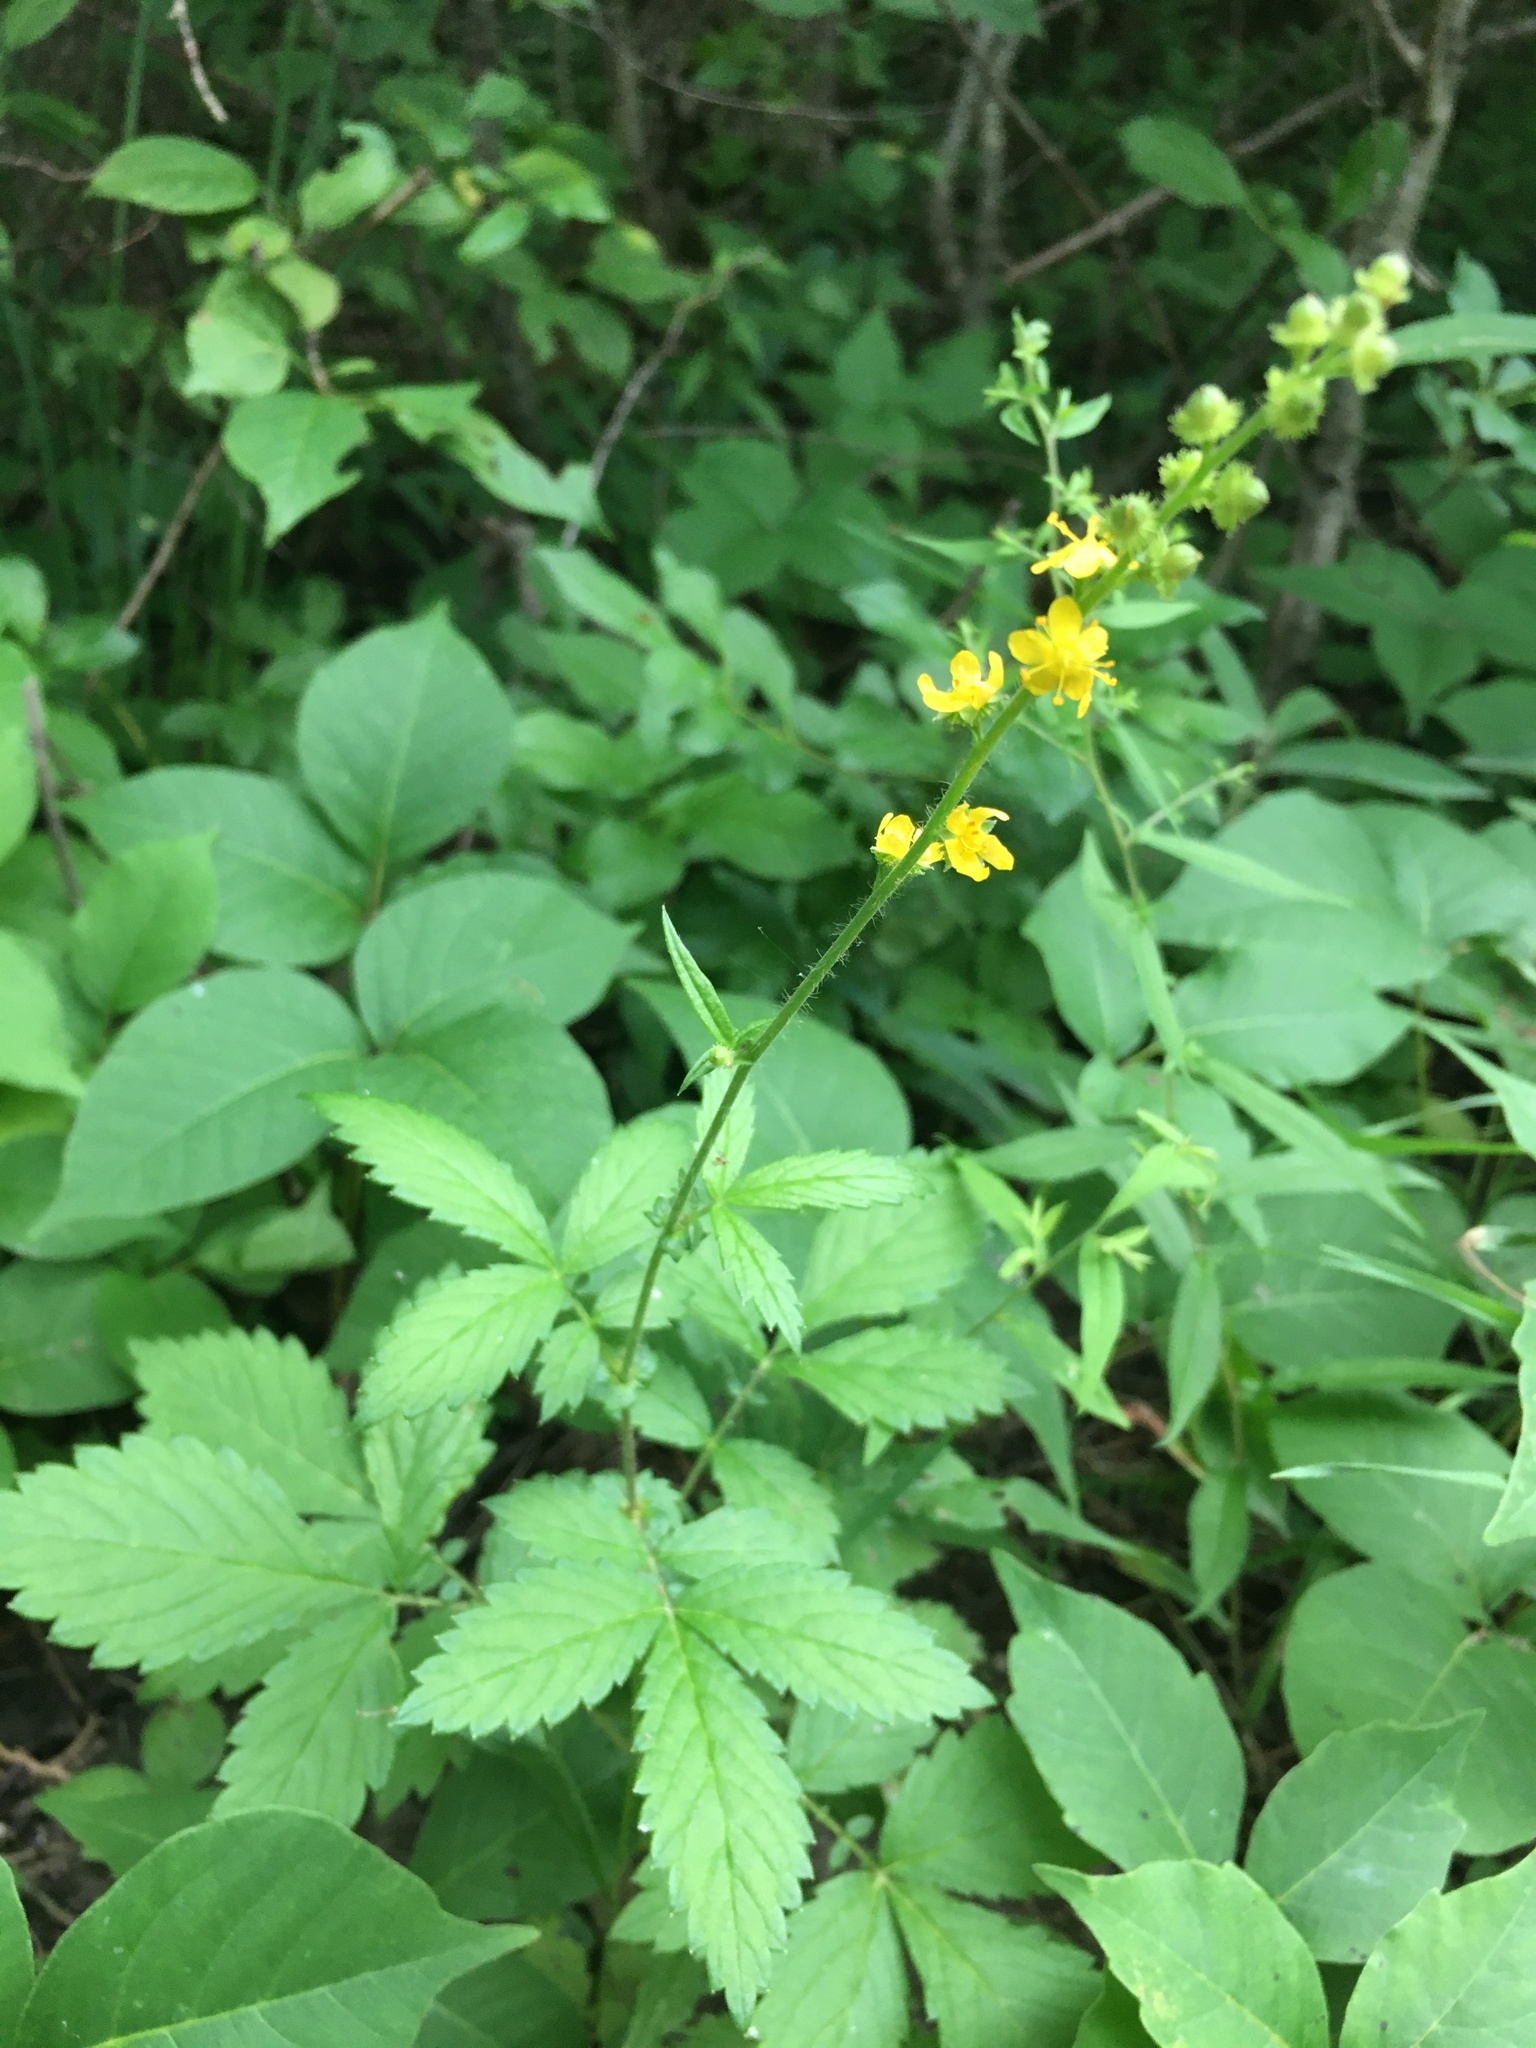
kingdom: Plantae
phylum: Tracheophyta
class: Magnoliopsida
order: Rosales
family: Rosaceae
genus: Agrimonia
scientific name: Agrimonia gryposepala
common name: Common agrimony
